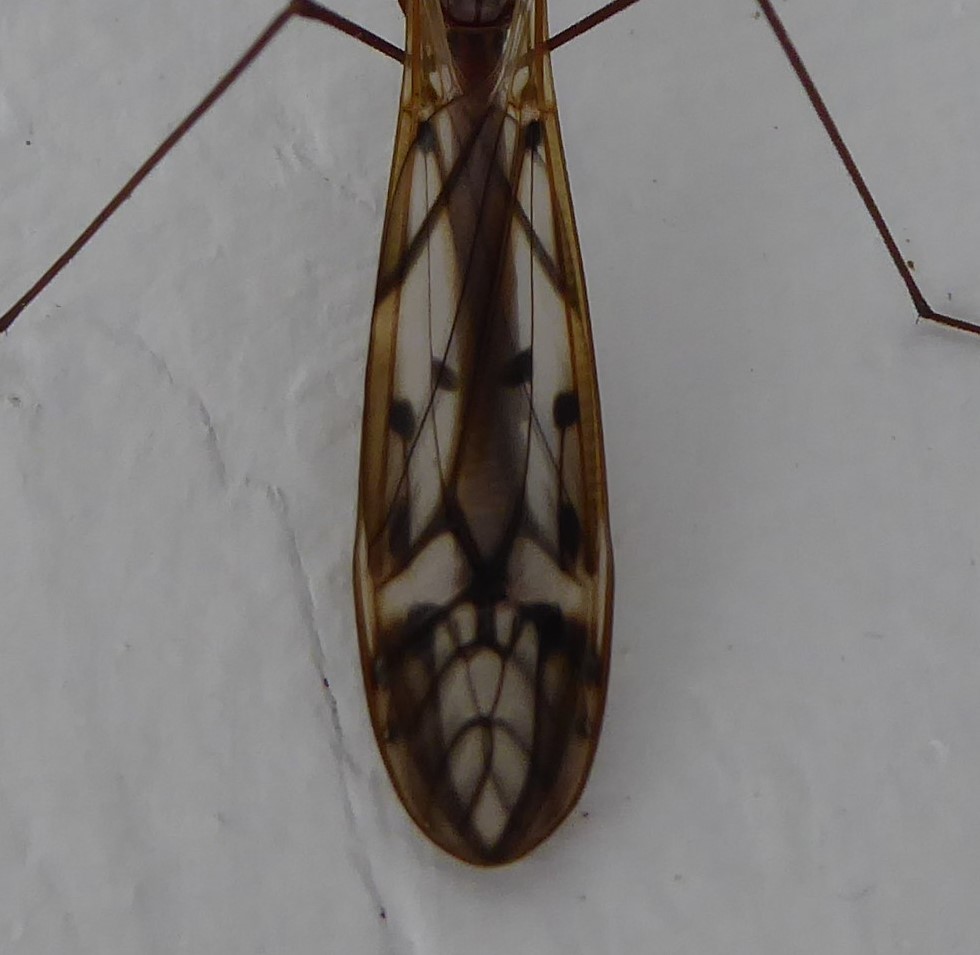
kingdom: Animalia
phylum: Arthropoda
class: Insecta
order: Diptera
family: Tipulidae
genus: Zelandotipula
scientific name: Zelandotipula novarae
